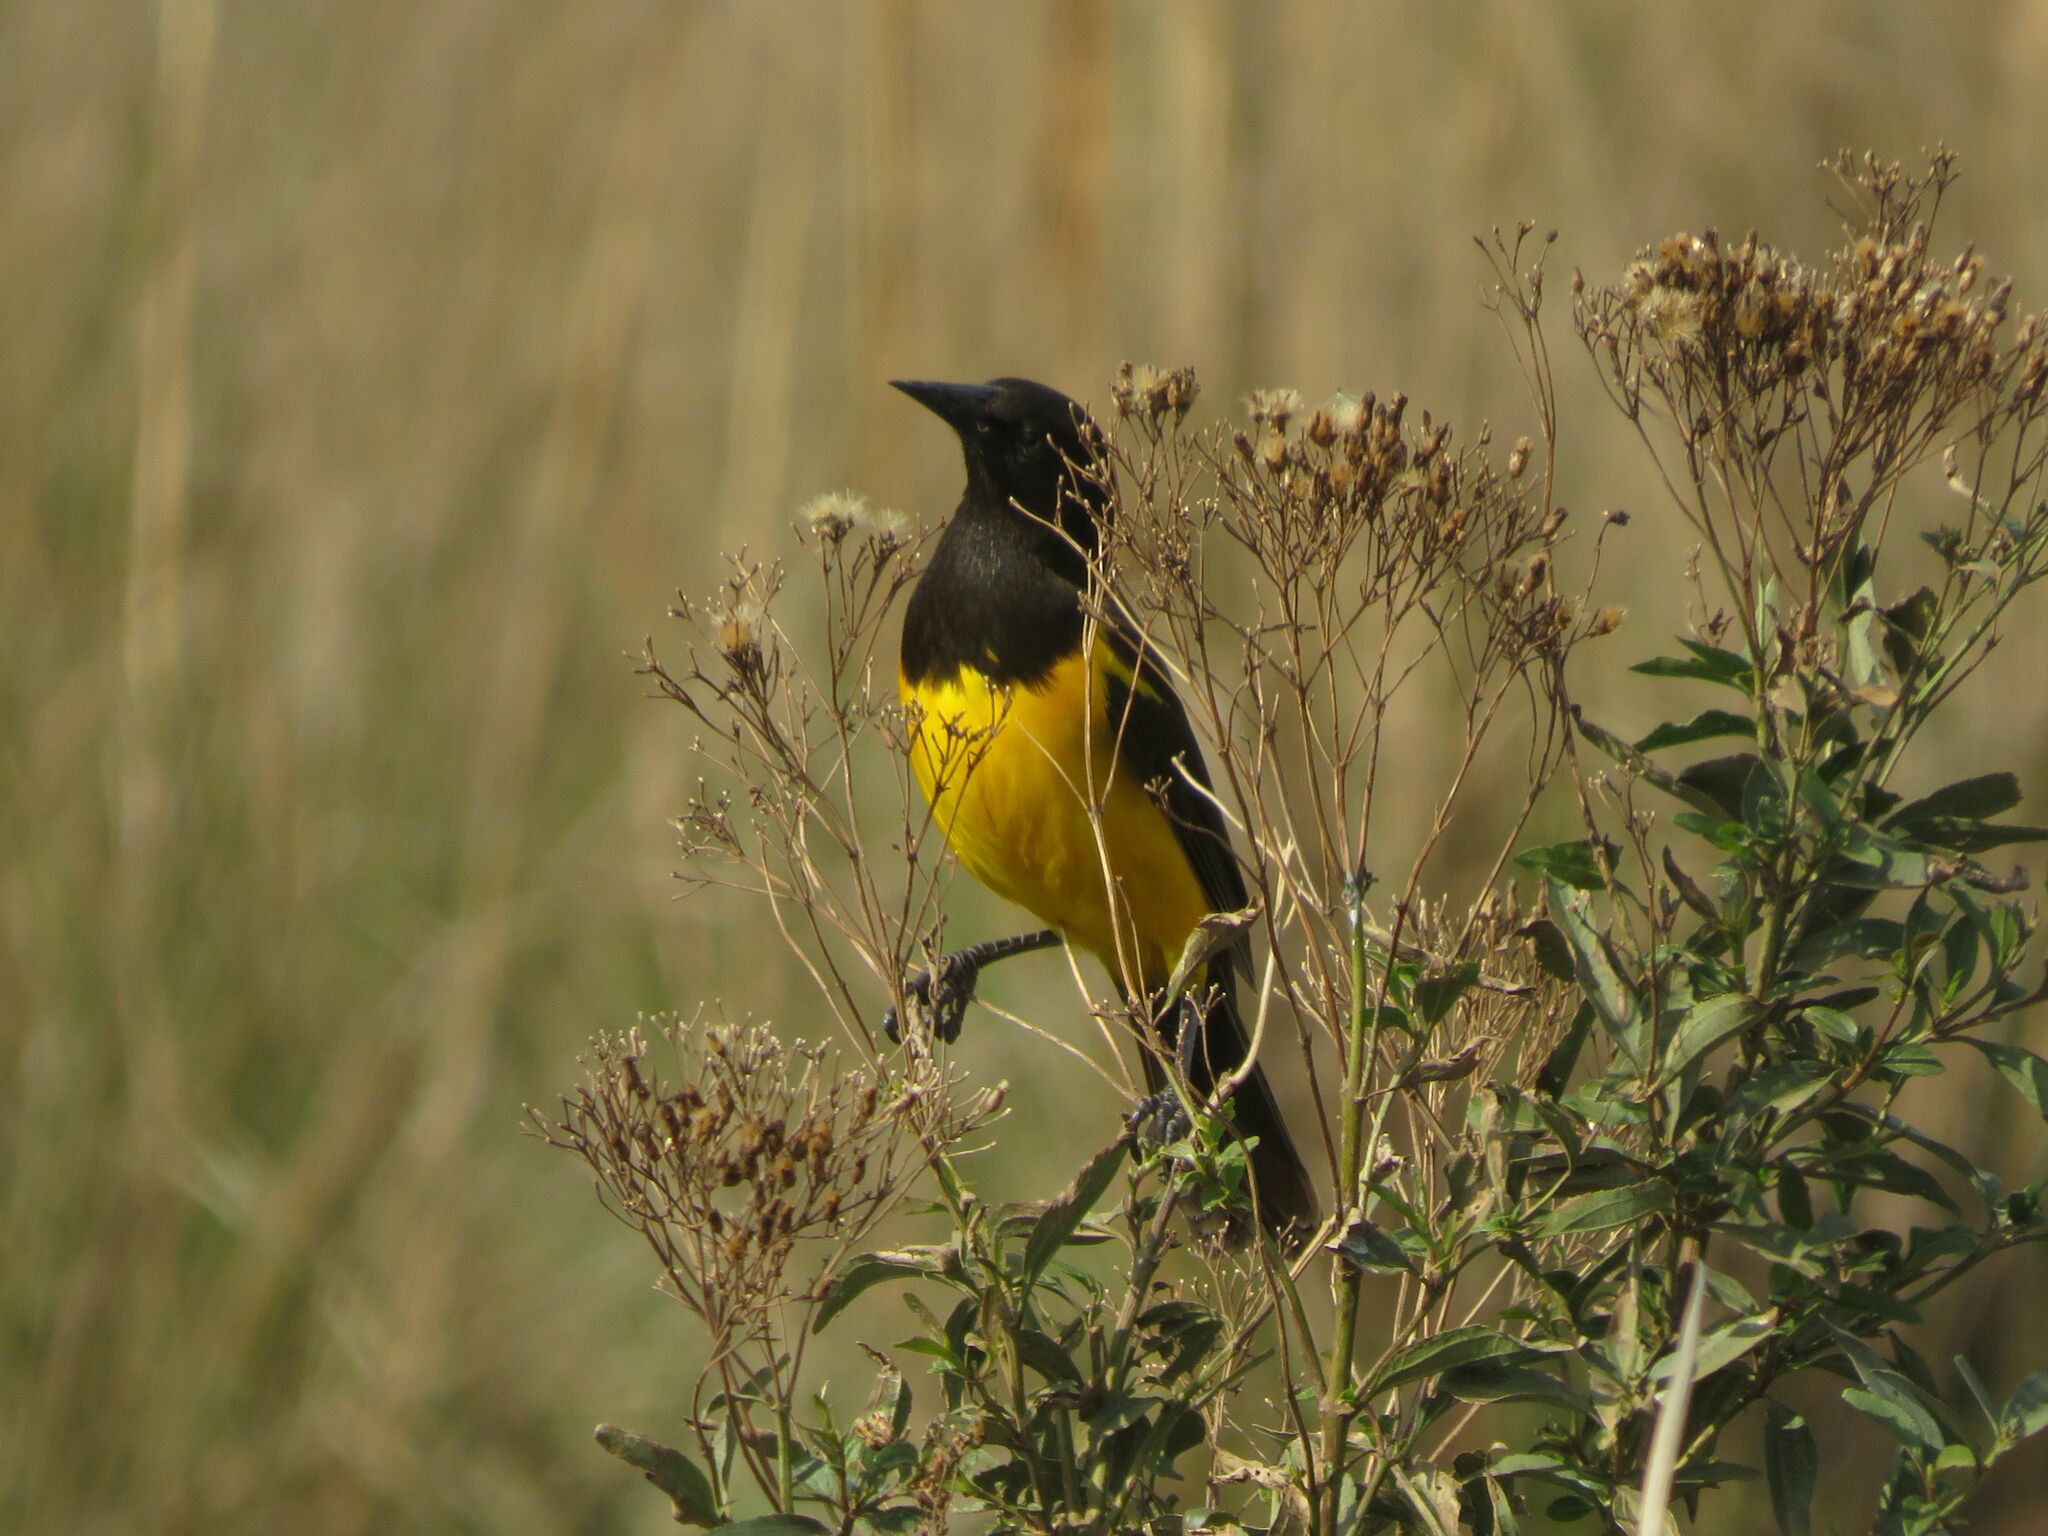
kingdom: Animalia
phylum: Chordata
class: Aves
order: Passeriformes
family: Icteridae
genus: Pseudoleistes
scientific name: Pseudoleistes guirahuro
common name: Yellow-rumped marshbird
